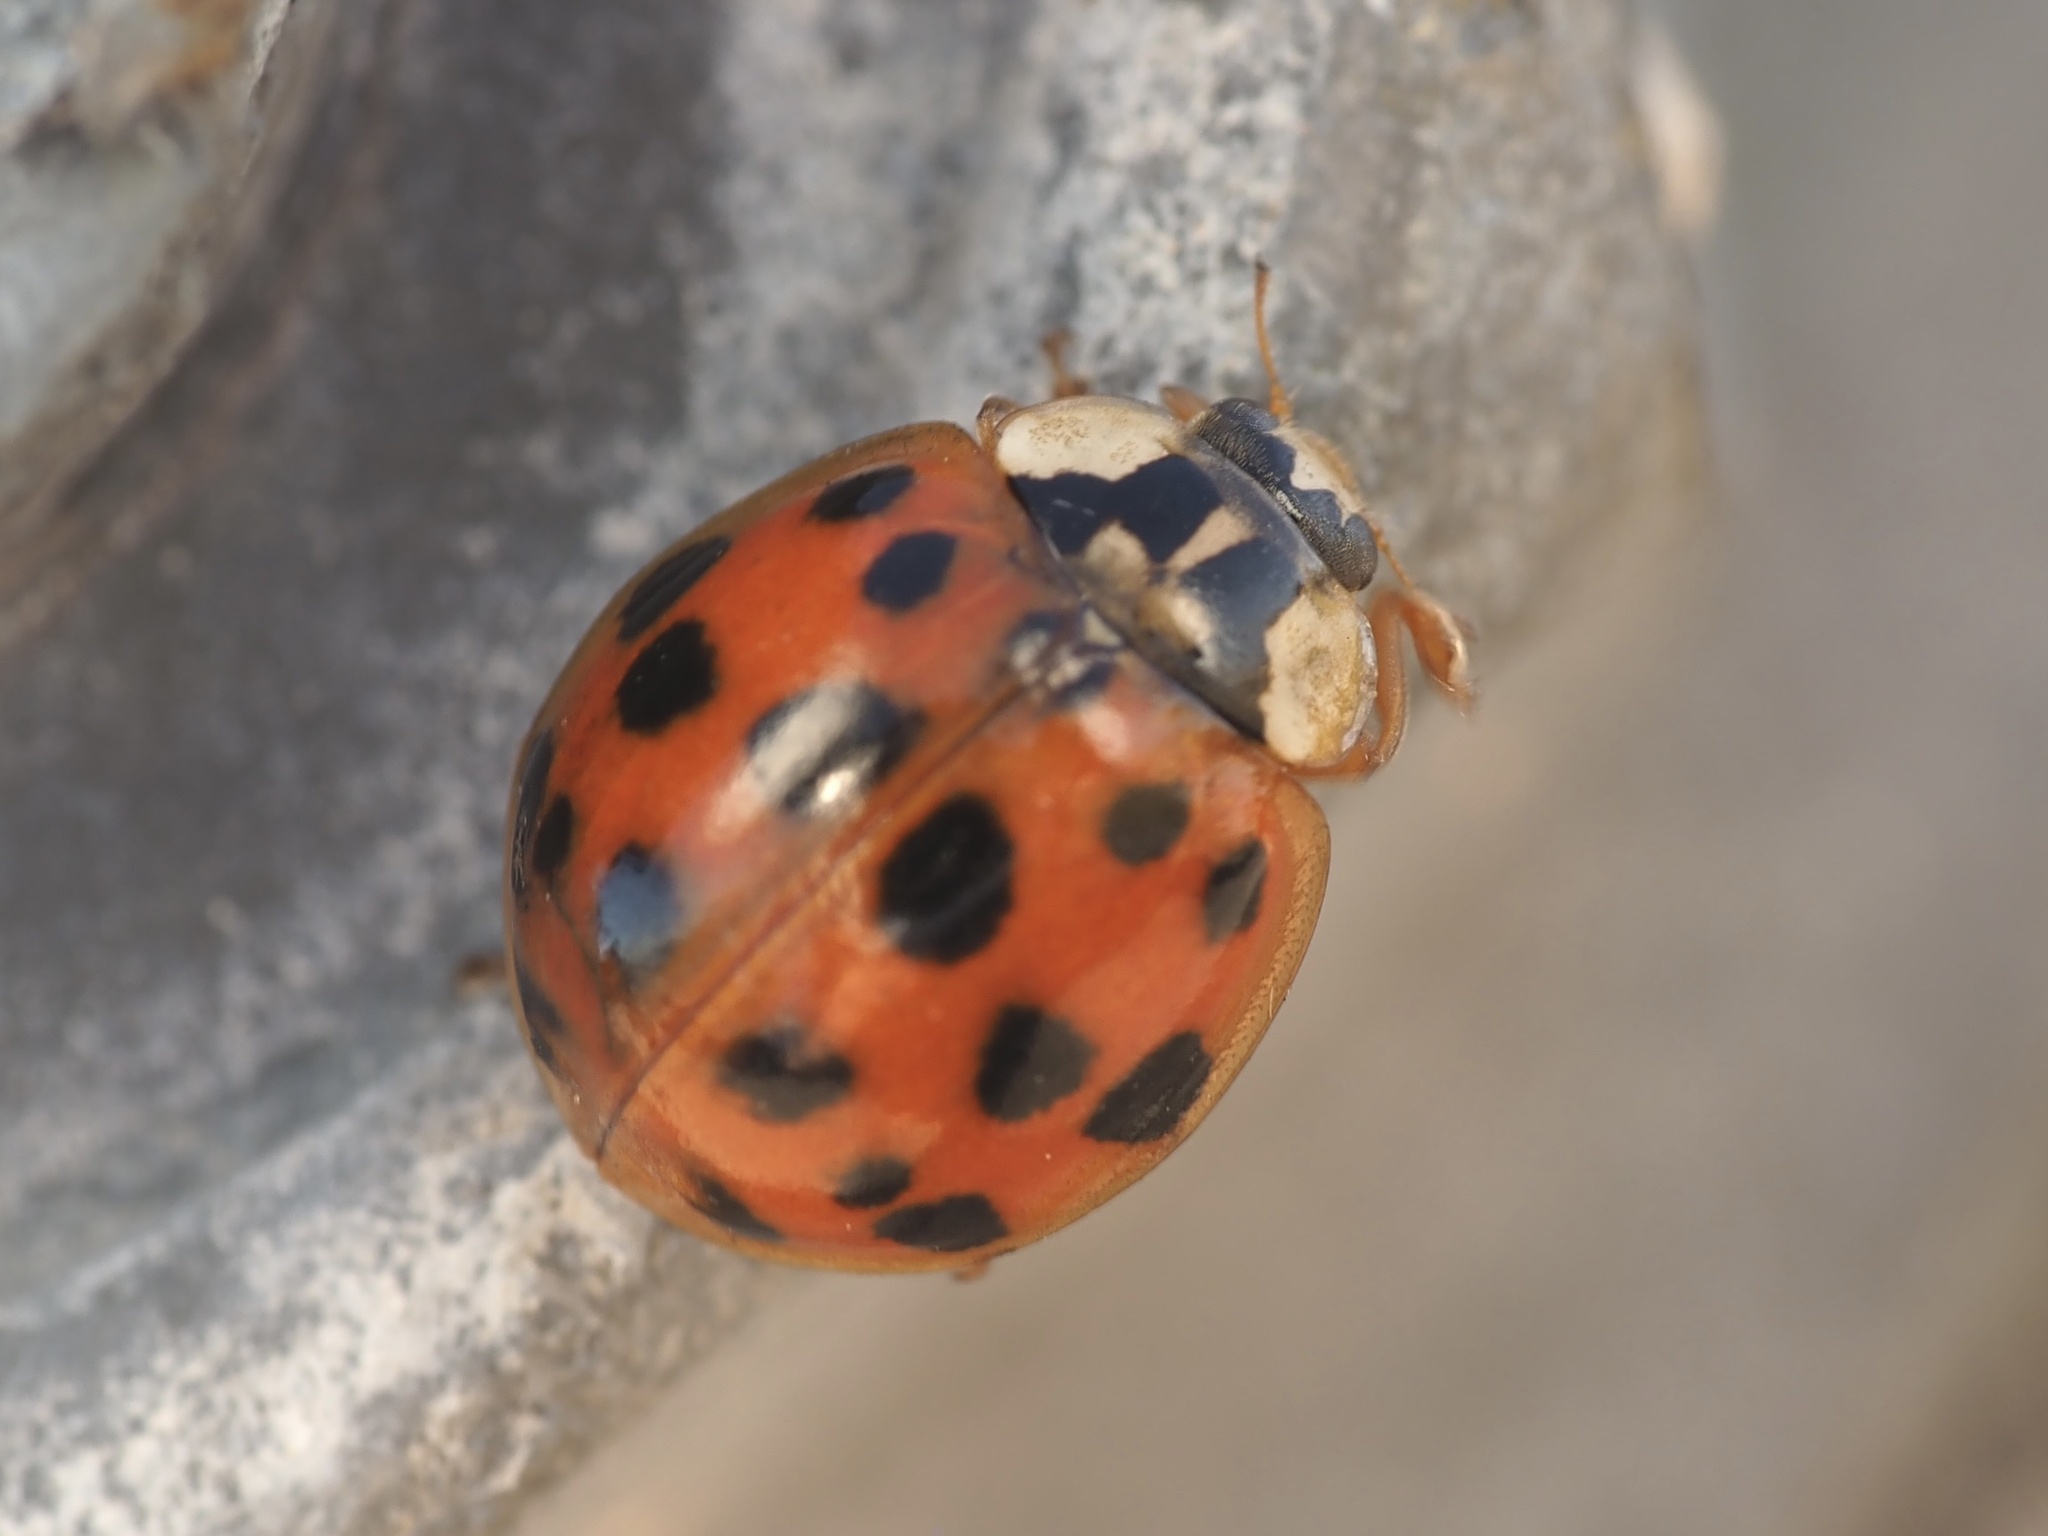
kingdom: Animalia
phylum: Arthropoda
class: Insecta
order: Coleoptera
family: Coccinellidae
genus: Harmonia
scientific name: Harmonia axyridis
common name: Harlequin ladybird
